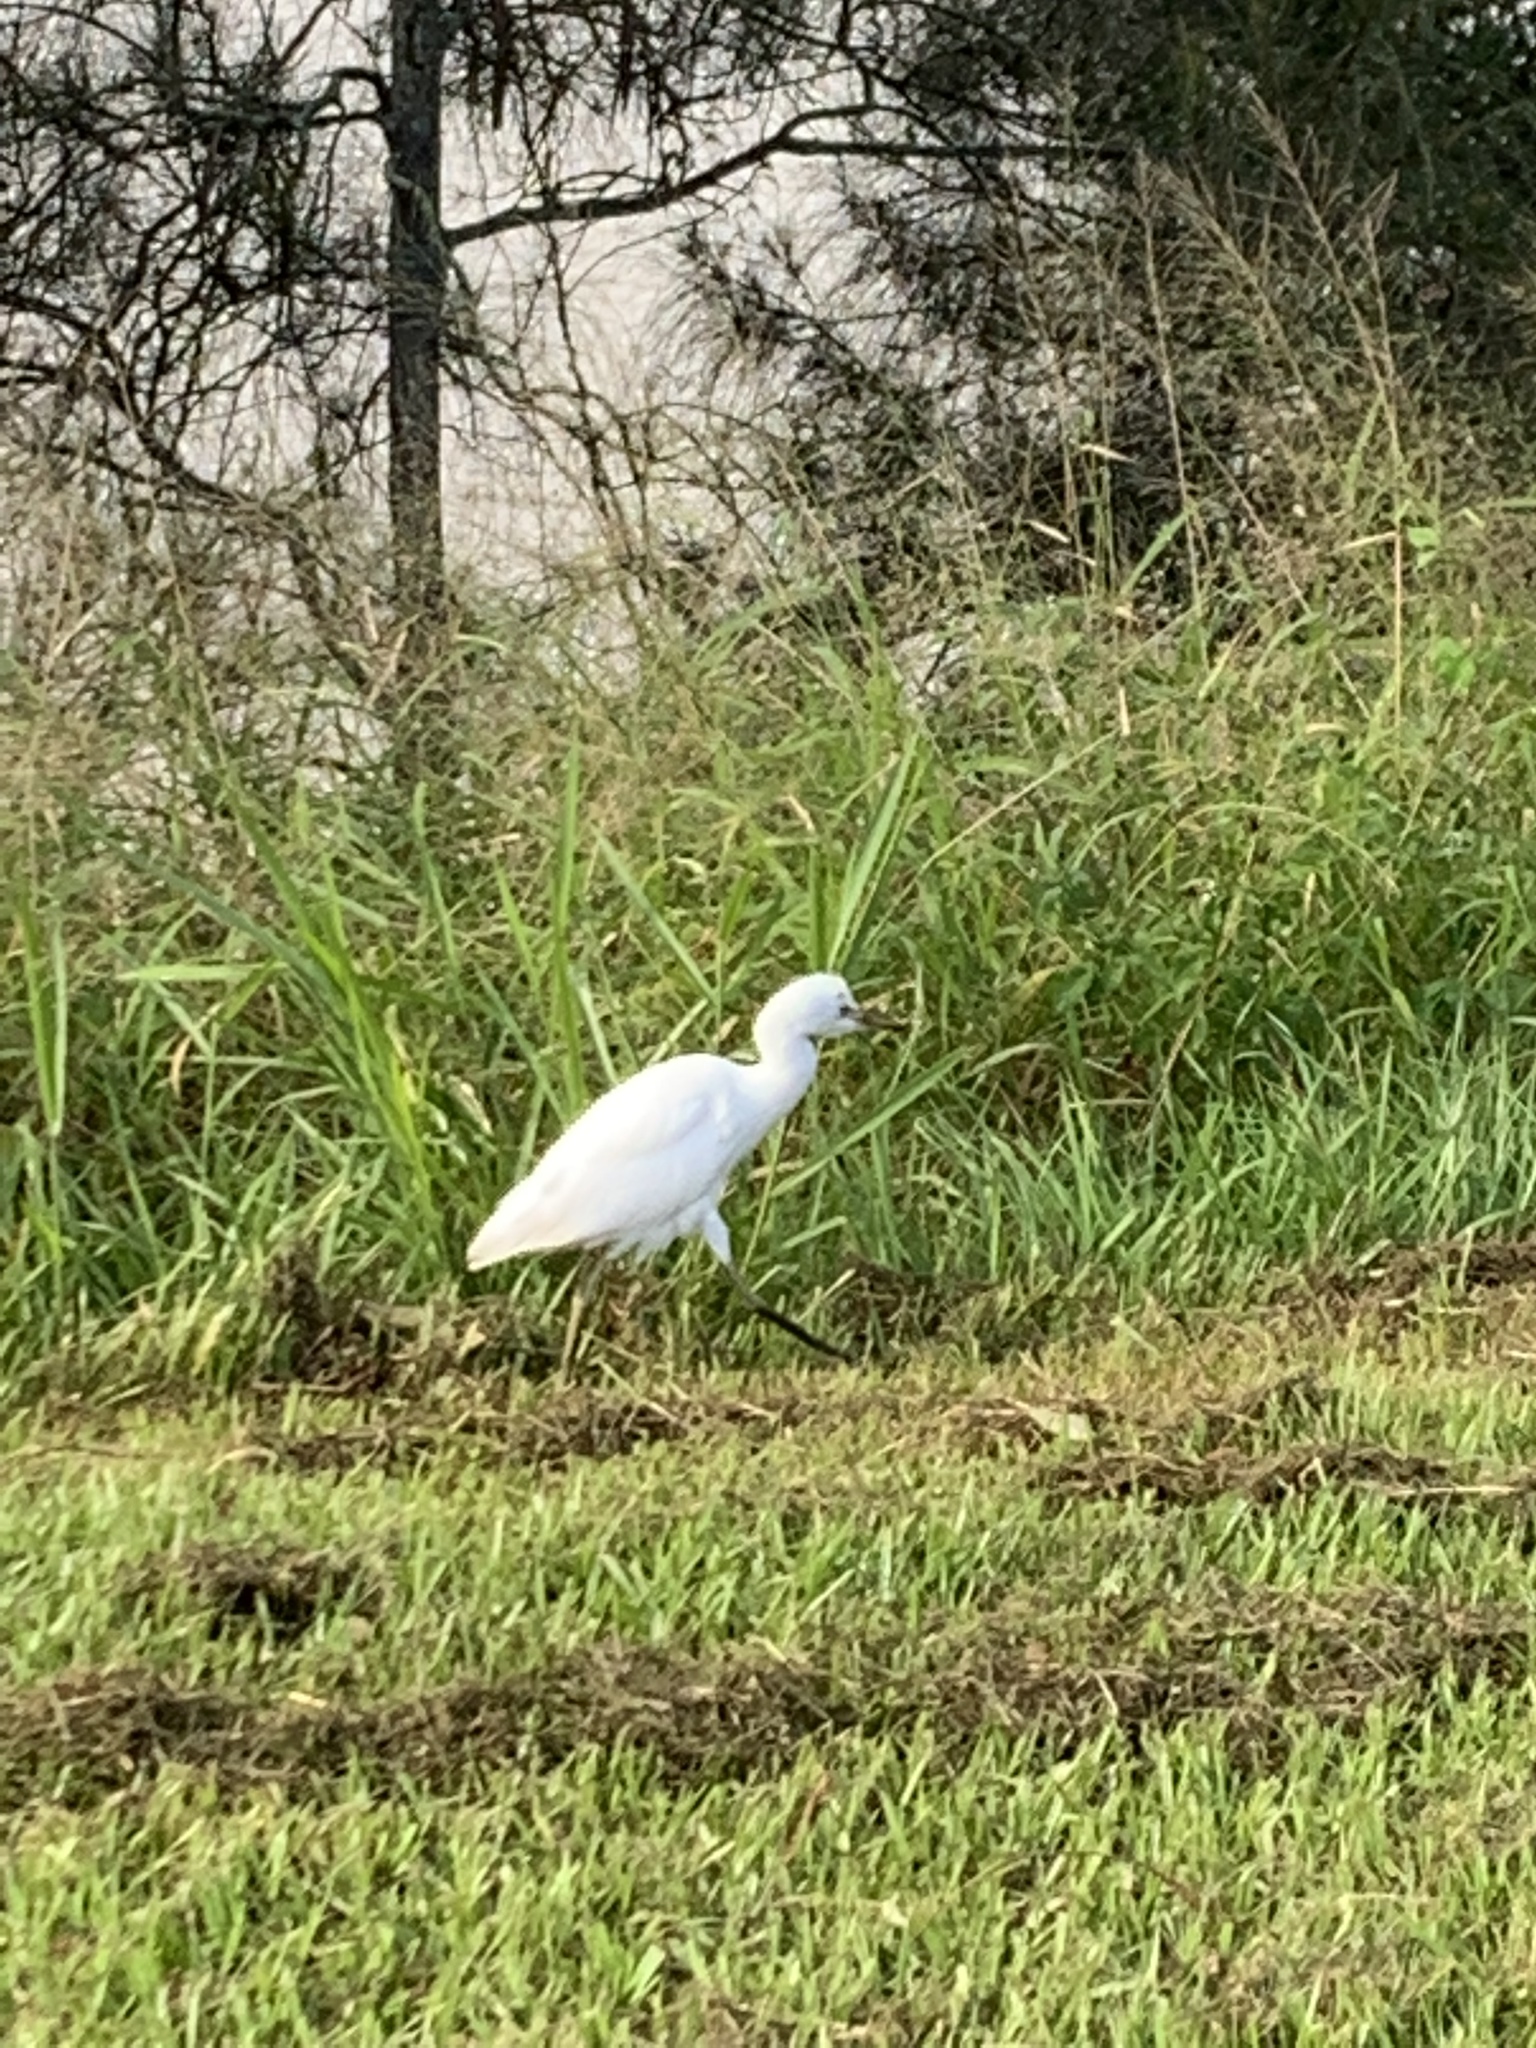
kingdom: Animalia
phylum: Chordata
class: Aves
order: Pelecaniformes
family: Ardeidae
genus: Bubulcus
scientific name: Bubulcus coromandus
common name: Eastern cattle egret
